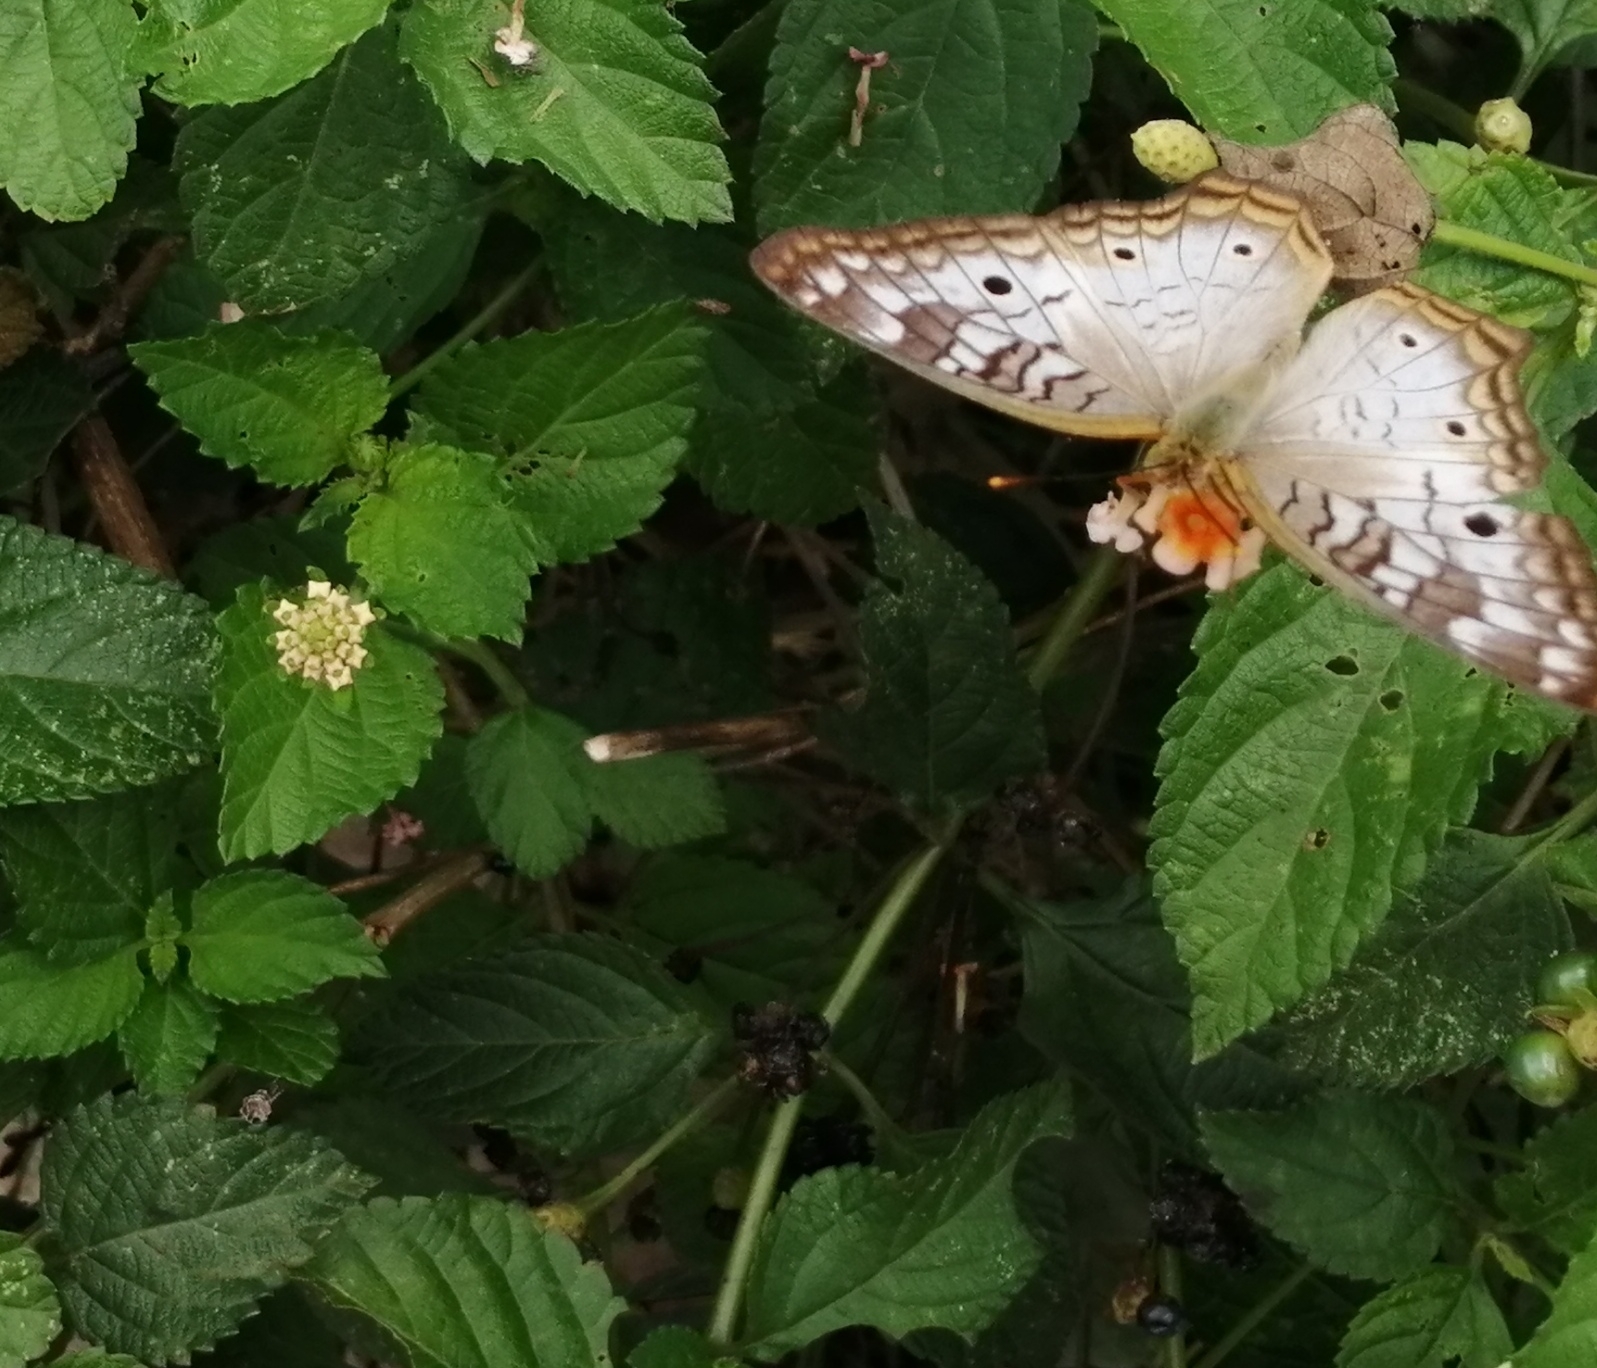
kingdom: Animalia
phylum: Arthropoda
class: Insecta
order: Lepidoptera
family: Nymphalidae
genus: Anartia
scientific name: Anartia jatrophae
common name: White peacock
